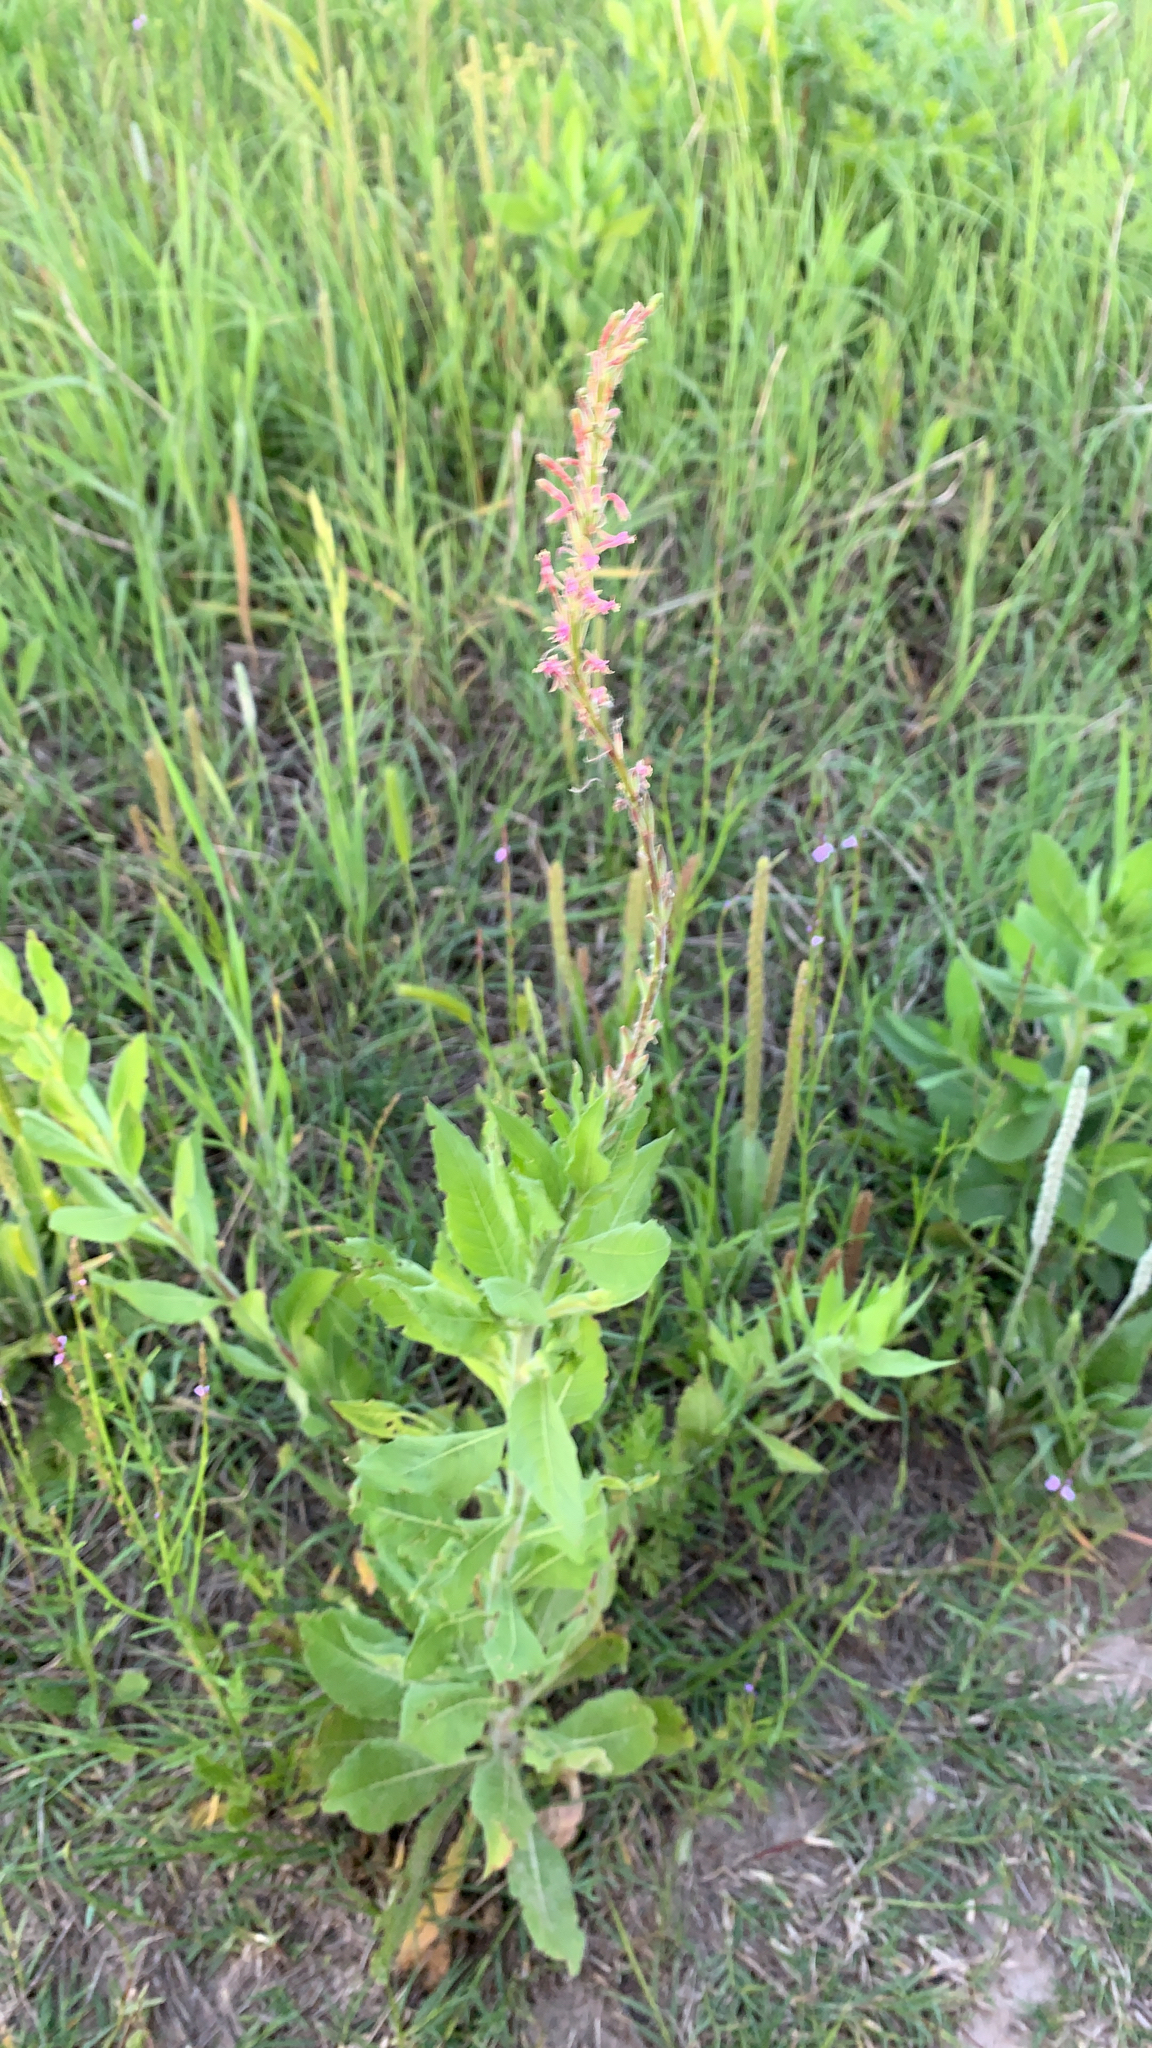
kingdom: Plantae
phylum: Tracheophyta
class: Magnoliopsida
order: Myrtales
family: Onagraceae
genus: Oenothera
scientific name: Oenothera curtiflora
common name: Velvetweed
